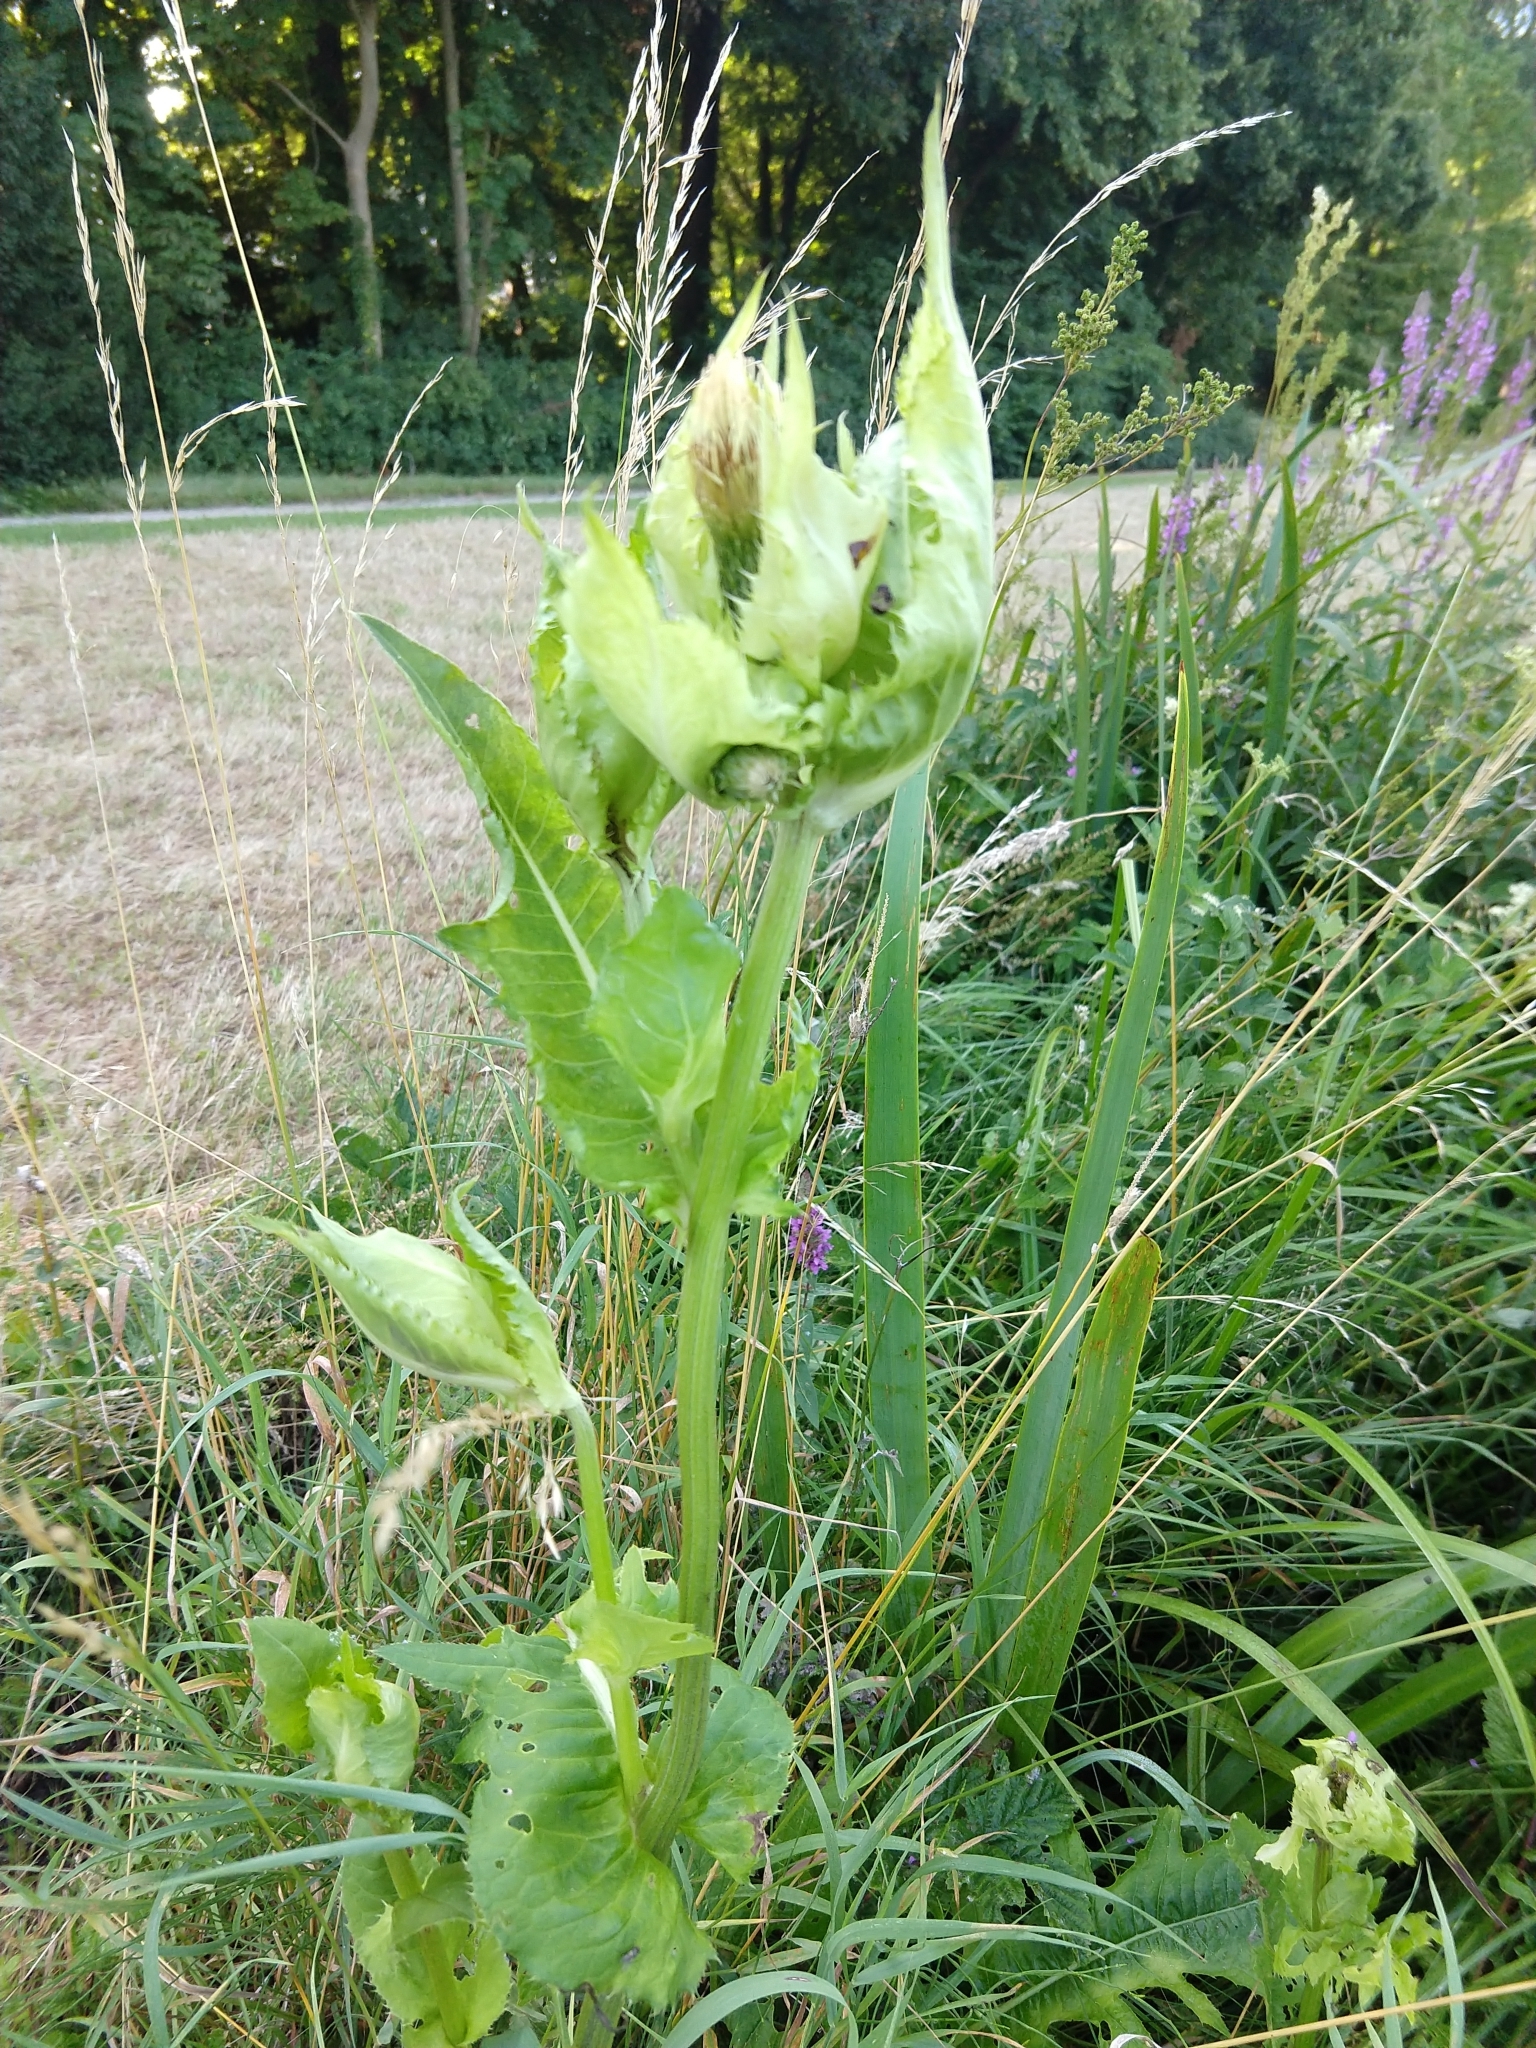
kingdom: Plantae
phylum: Tracheophyta
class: Magnoliopsida
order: Asterales
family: Asteraceae
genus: Cirsium
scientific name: Cirsium oleraceum
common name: Cabbage thistle
